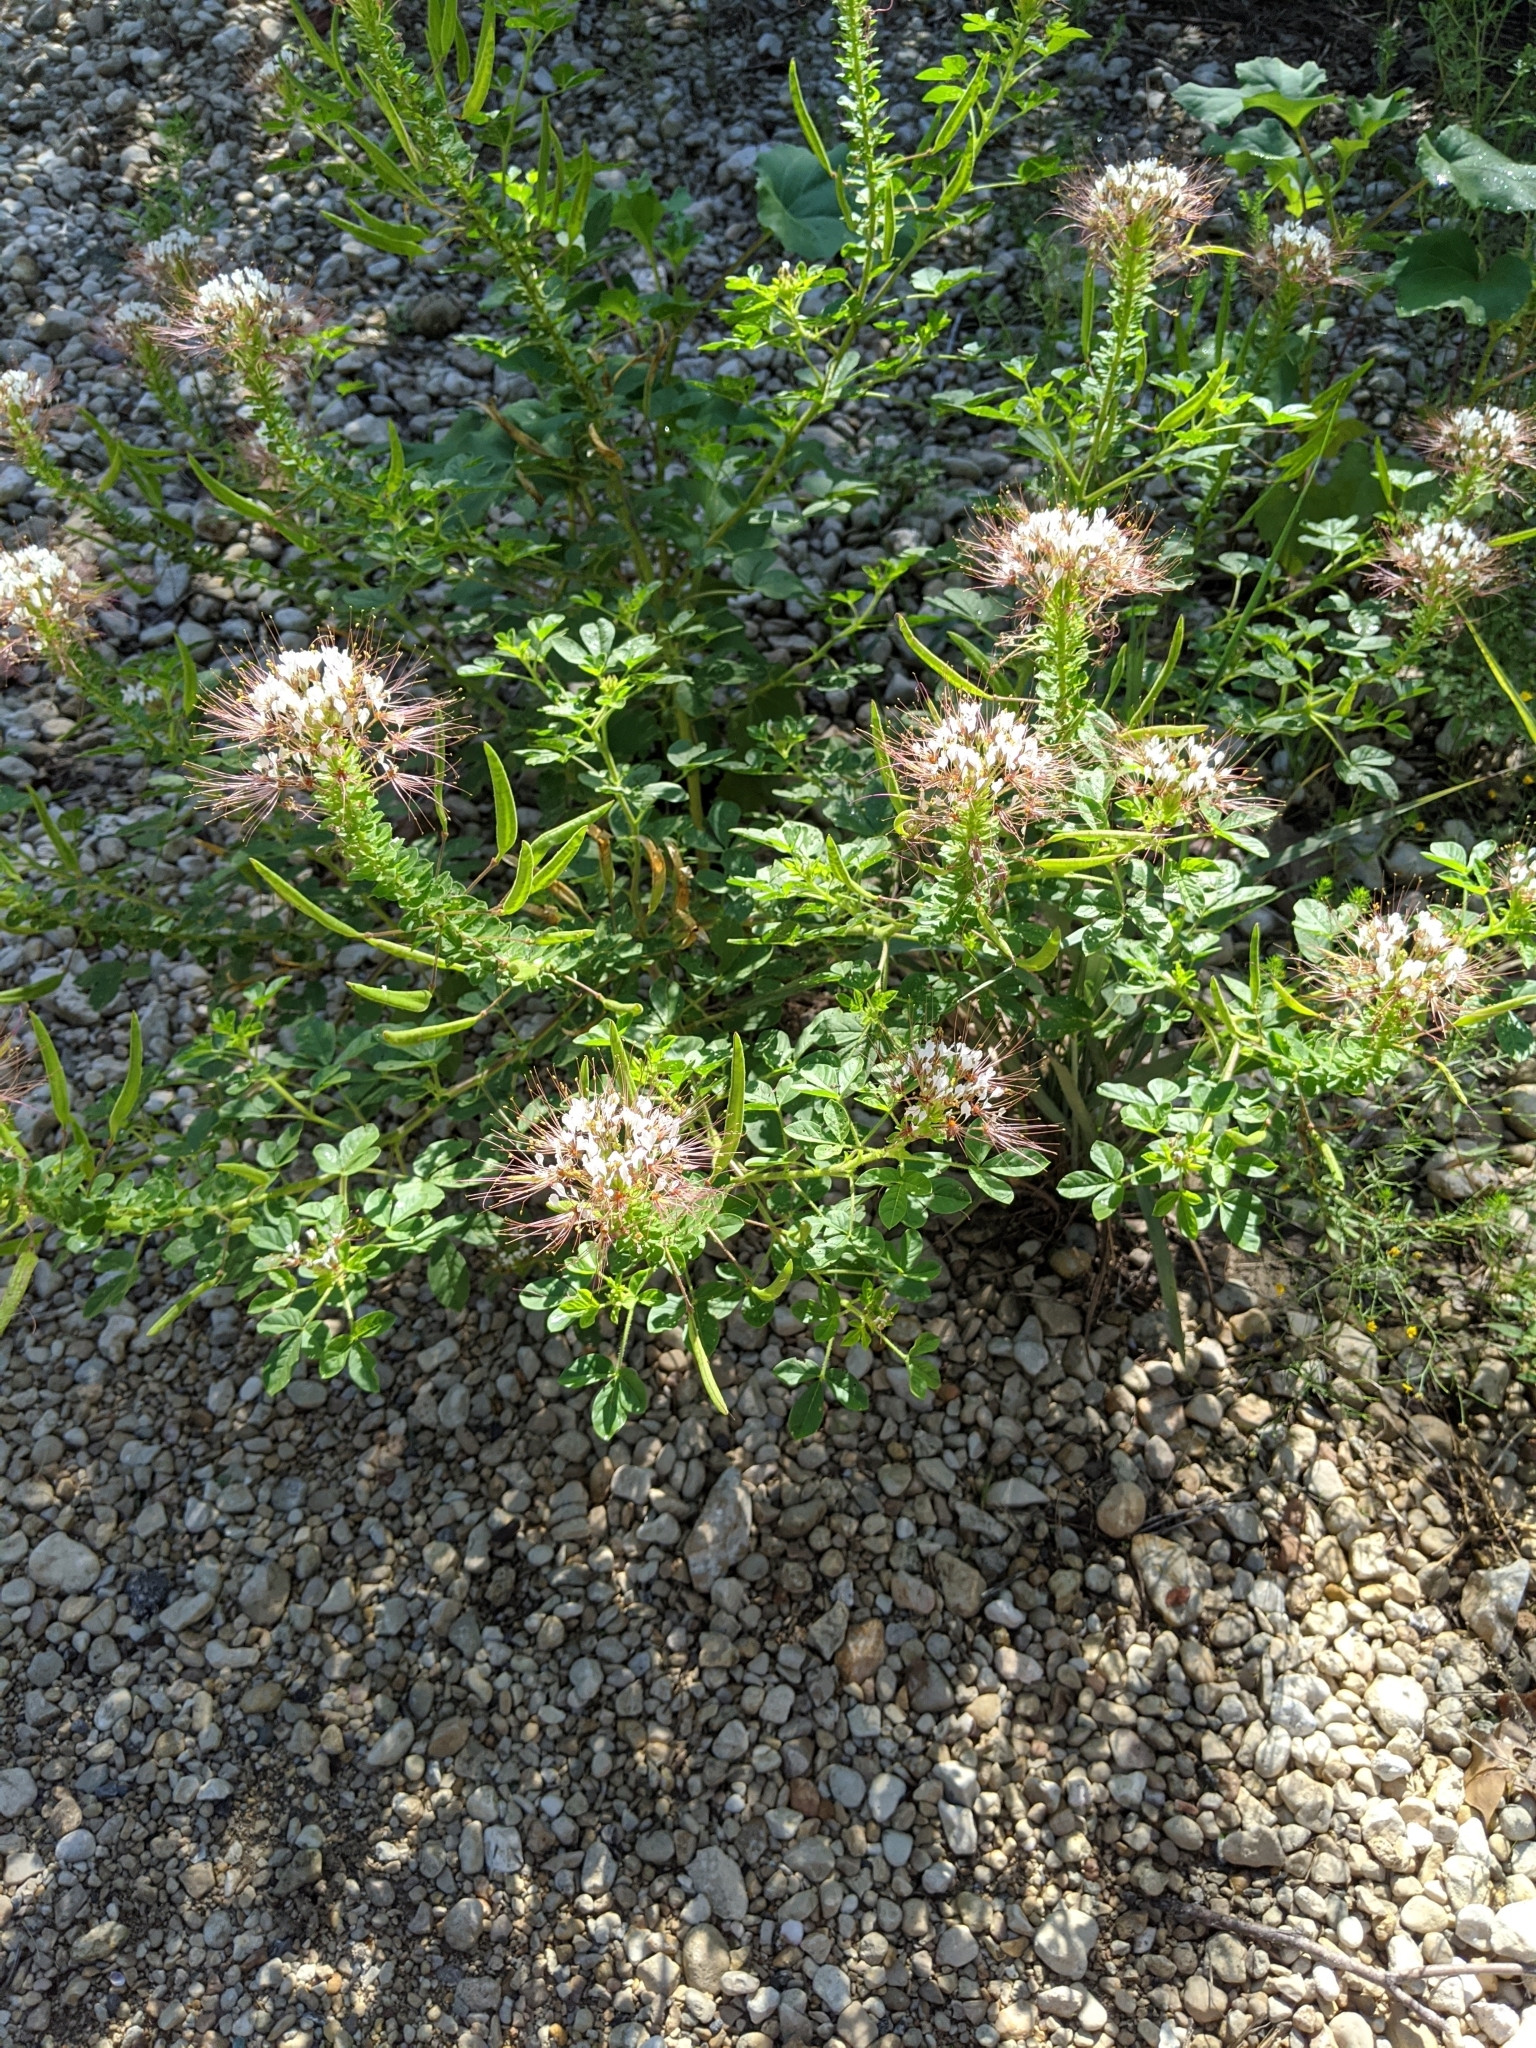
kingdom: Plantae
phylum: Tracheophyta
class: Magnoliopsida
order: Brassicales
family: Cleomaceae
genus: Polanisia
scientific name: Polanisia dodecandra
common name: Clammyweed
